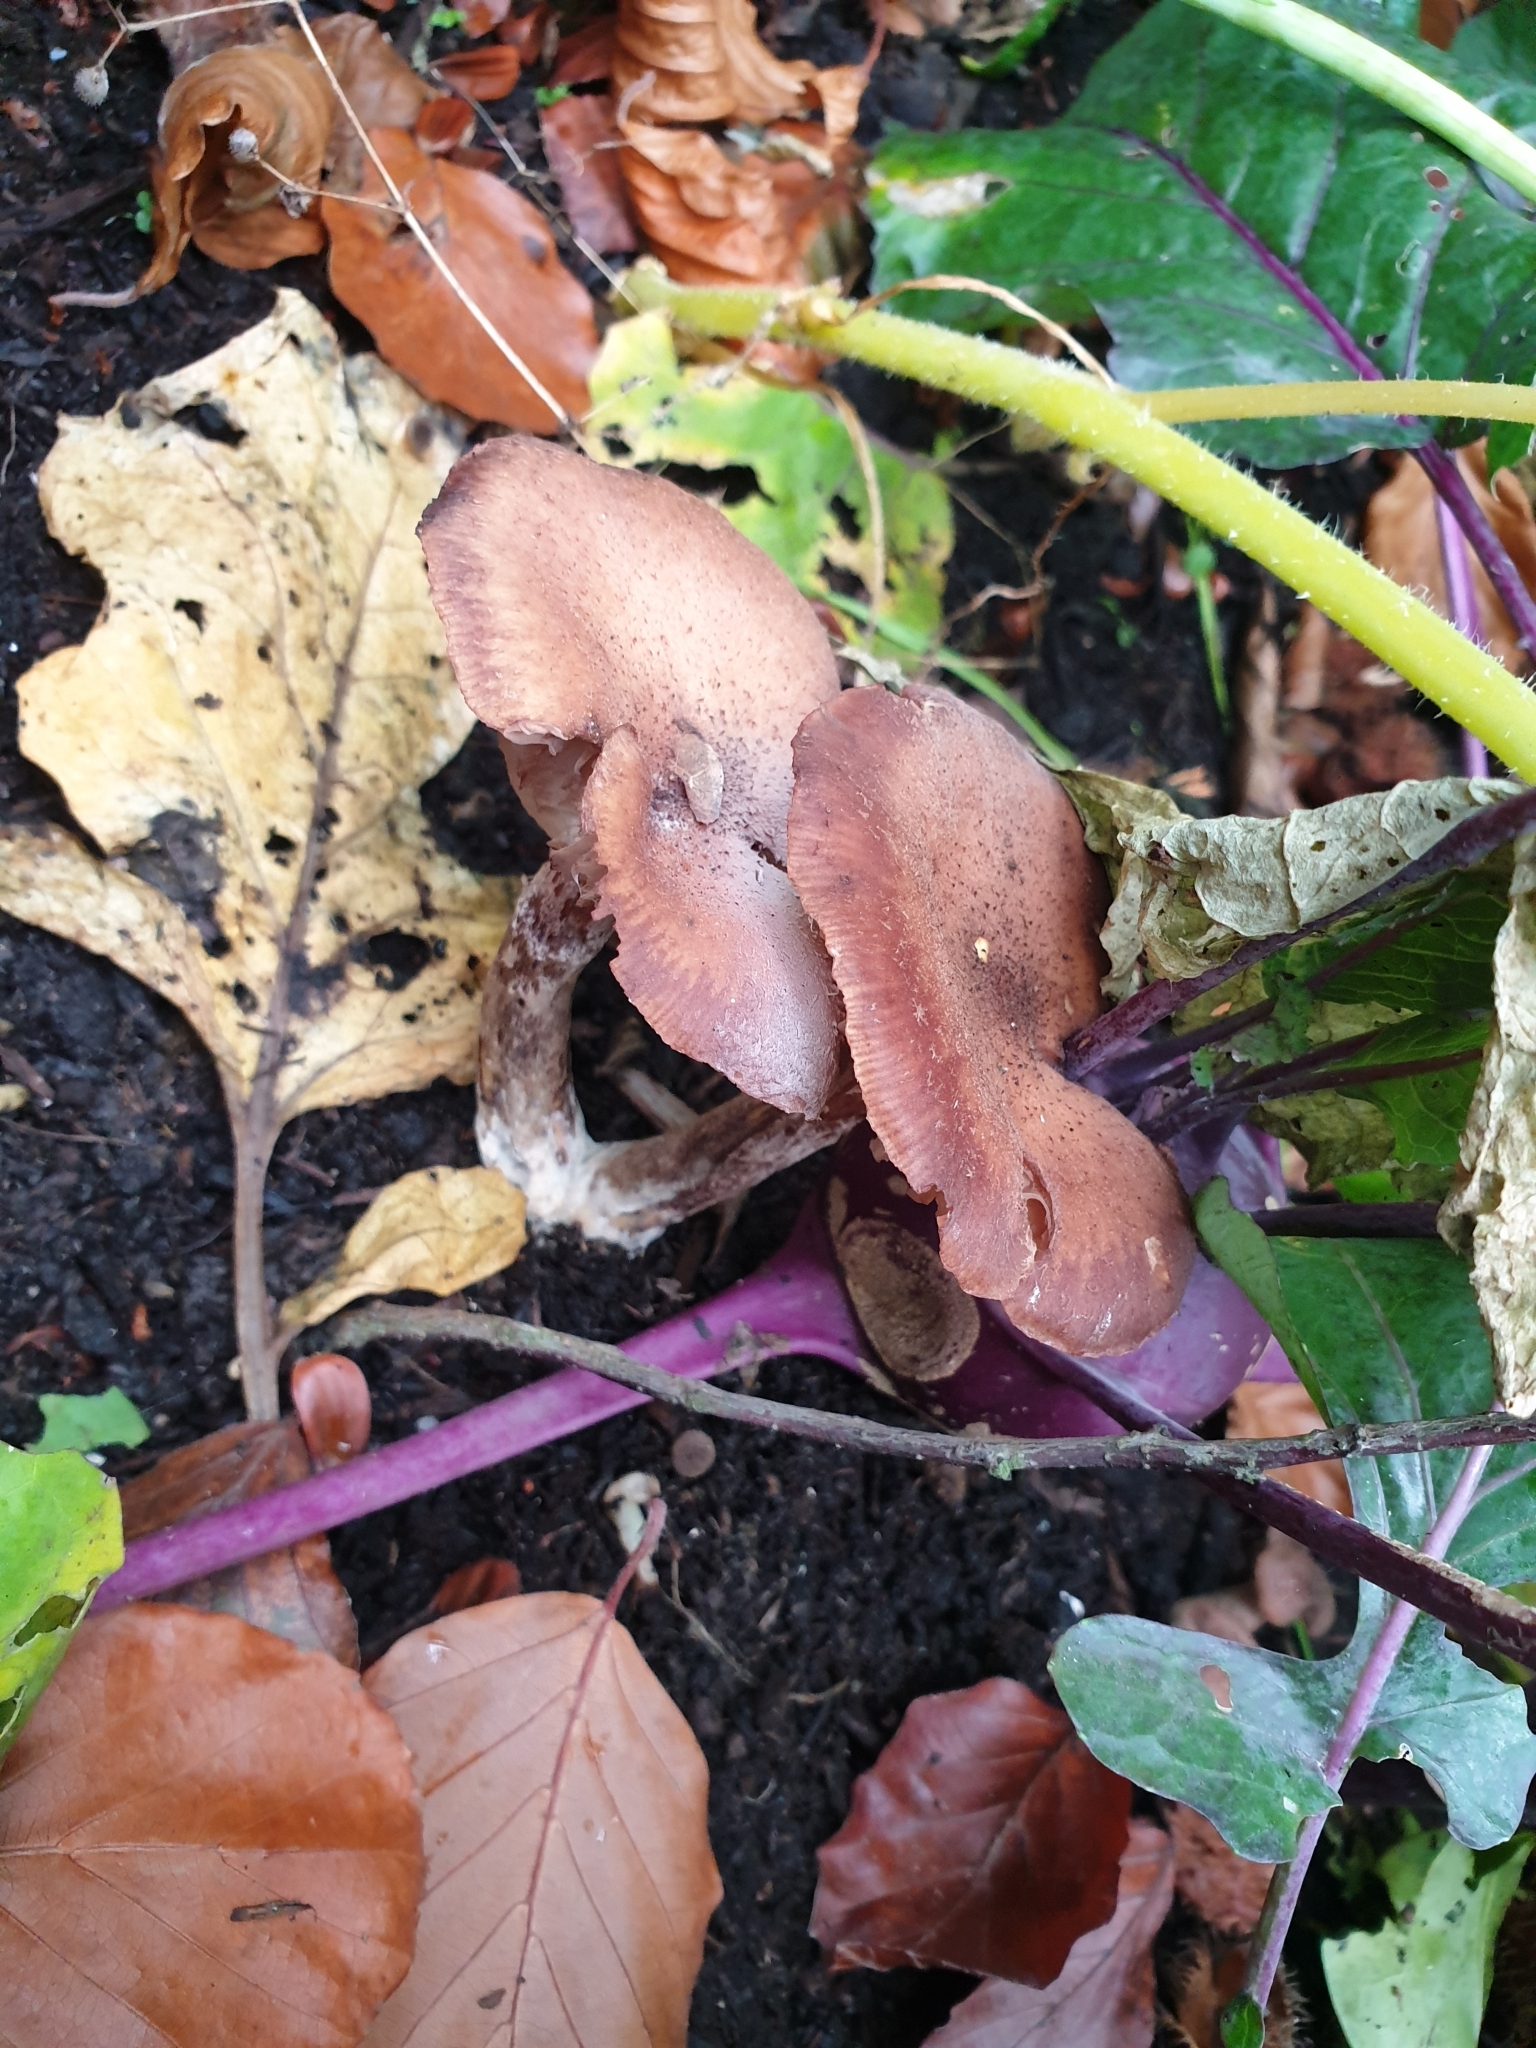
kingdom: Fungi
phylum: Basidiomycota
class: Agaricomycetes
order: Agaricales
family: Hydnangiaceae
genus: Laccaria
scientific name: Laccaria laccata
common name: Deceiver
